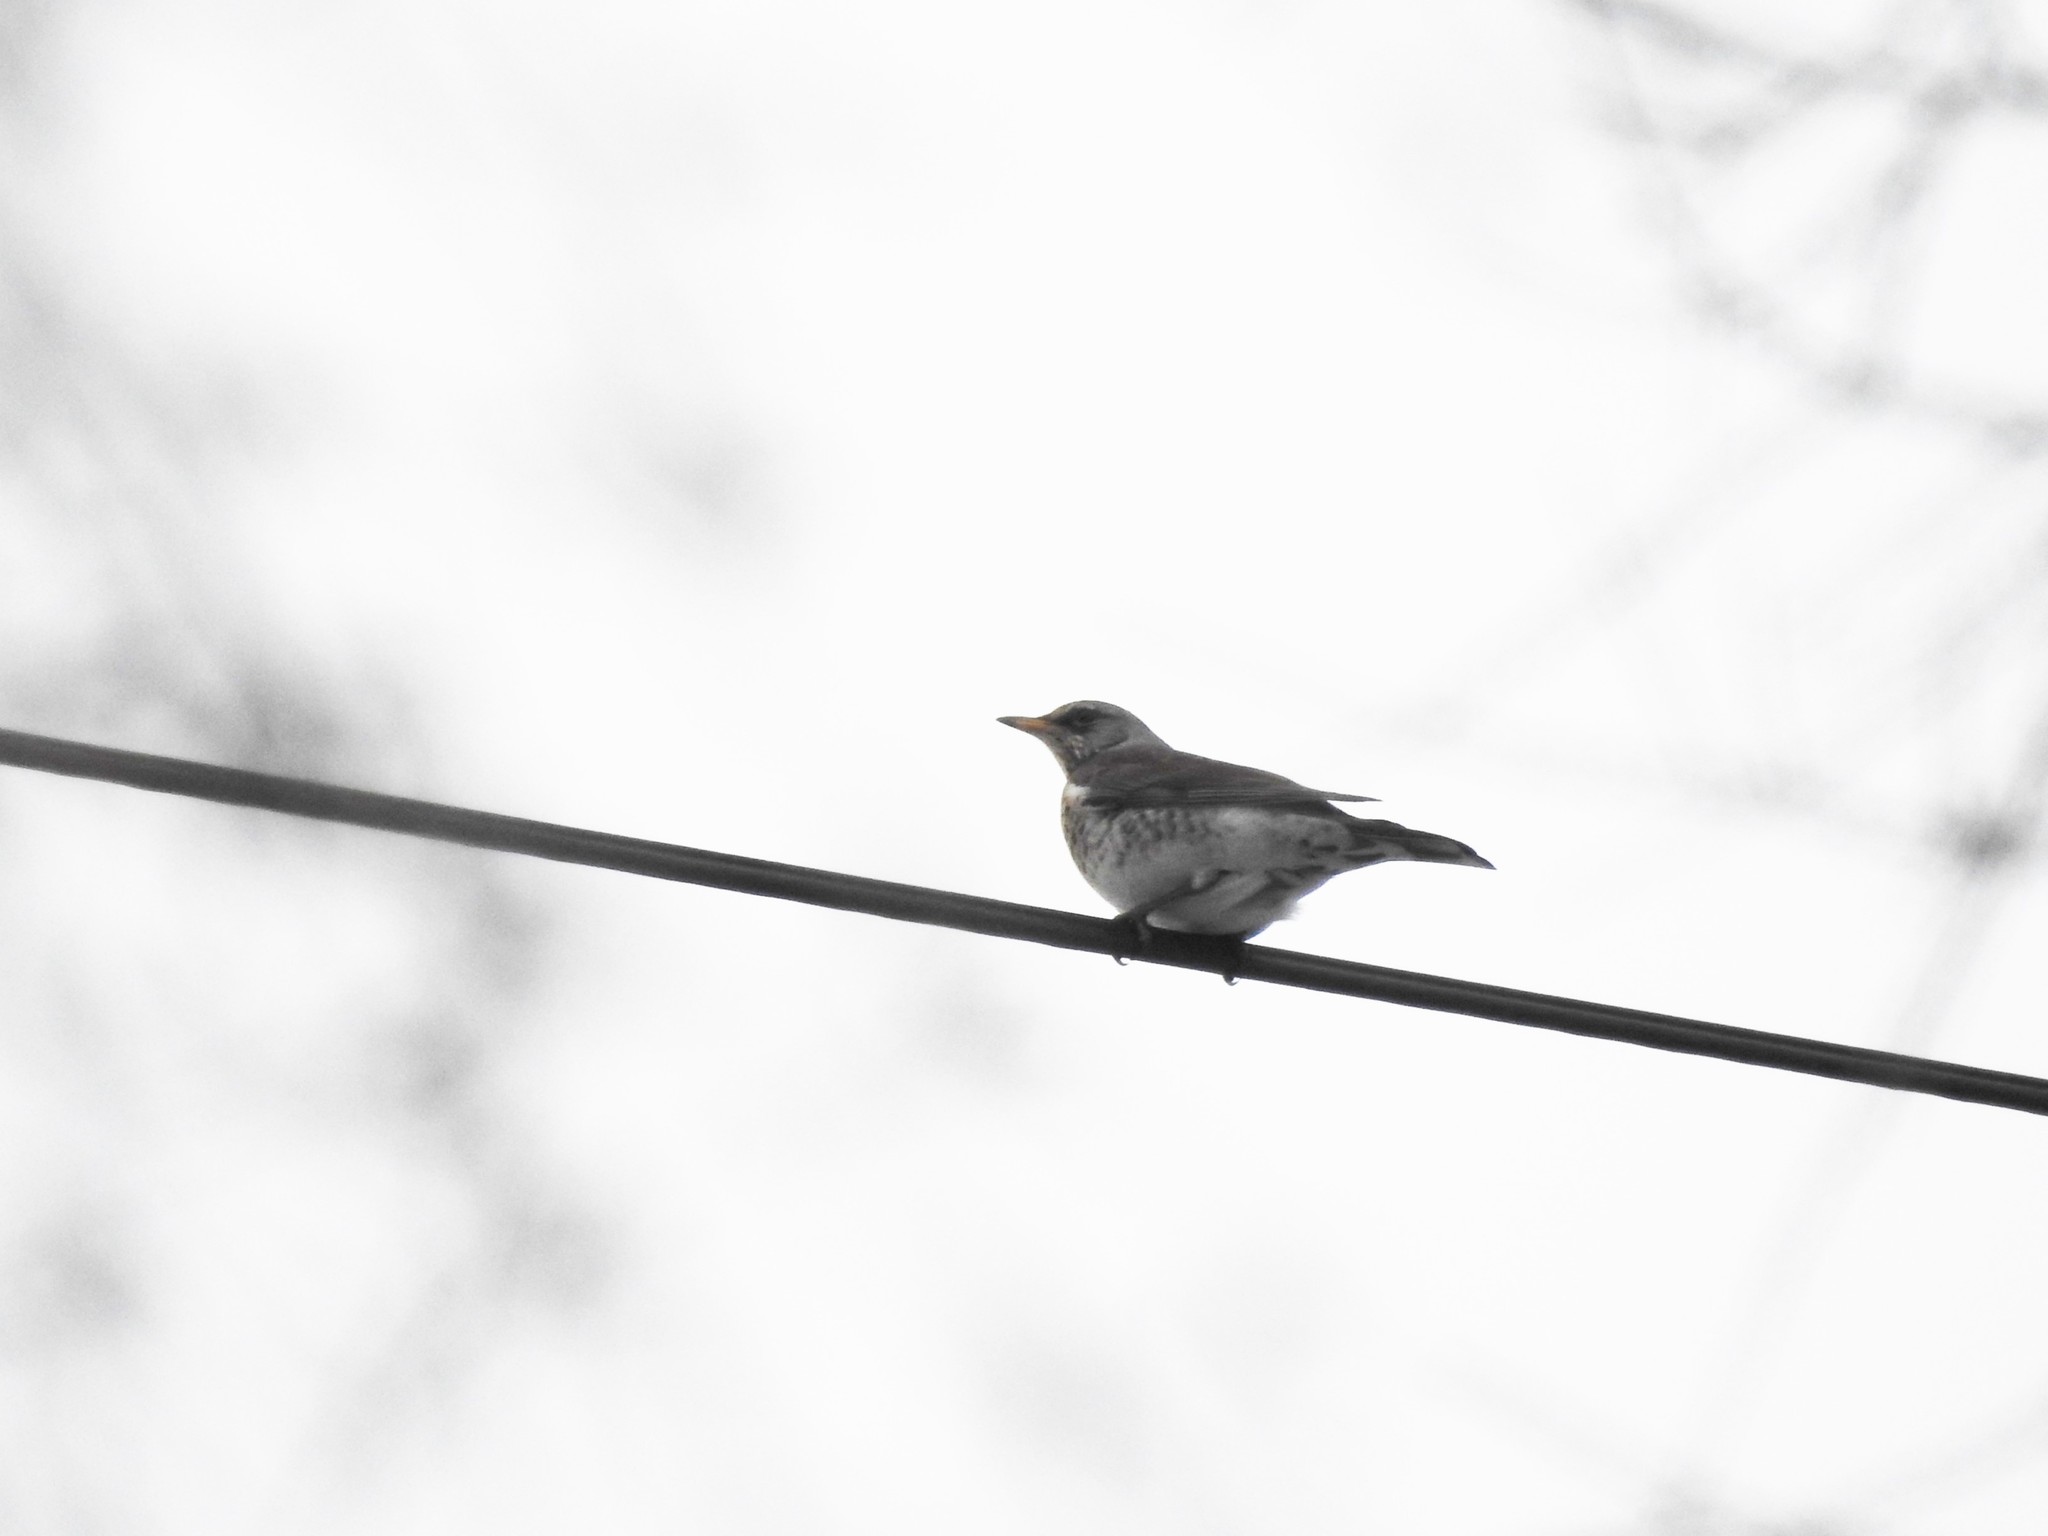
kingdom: Animalia
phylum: Chordata
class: Aves
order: Passeriformes
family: Turdidae
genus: Turdus
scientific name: Turdus pilaris
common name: Fieldfare
